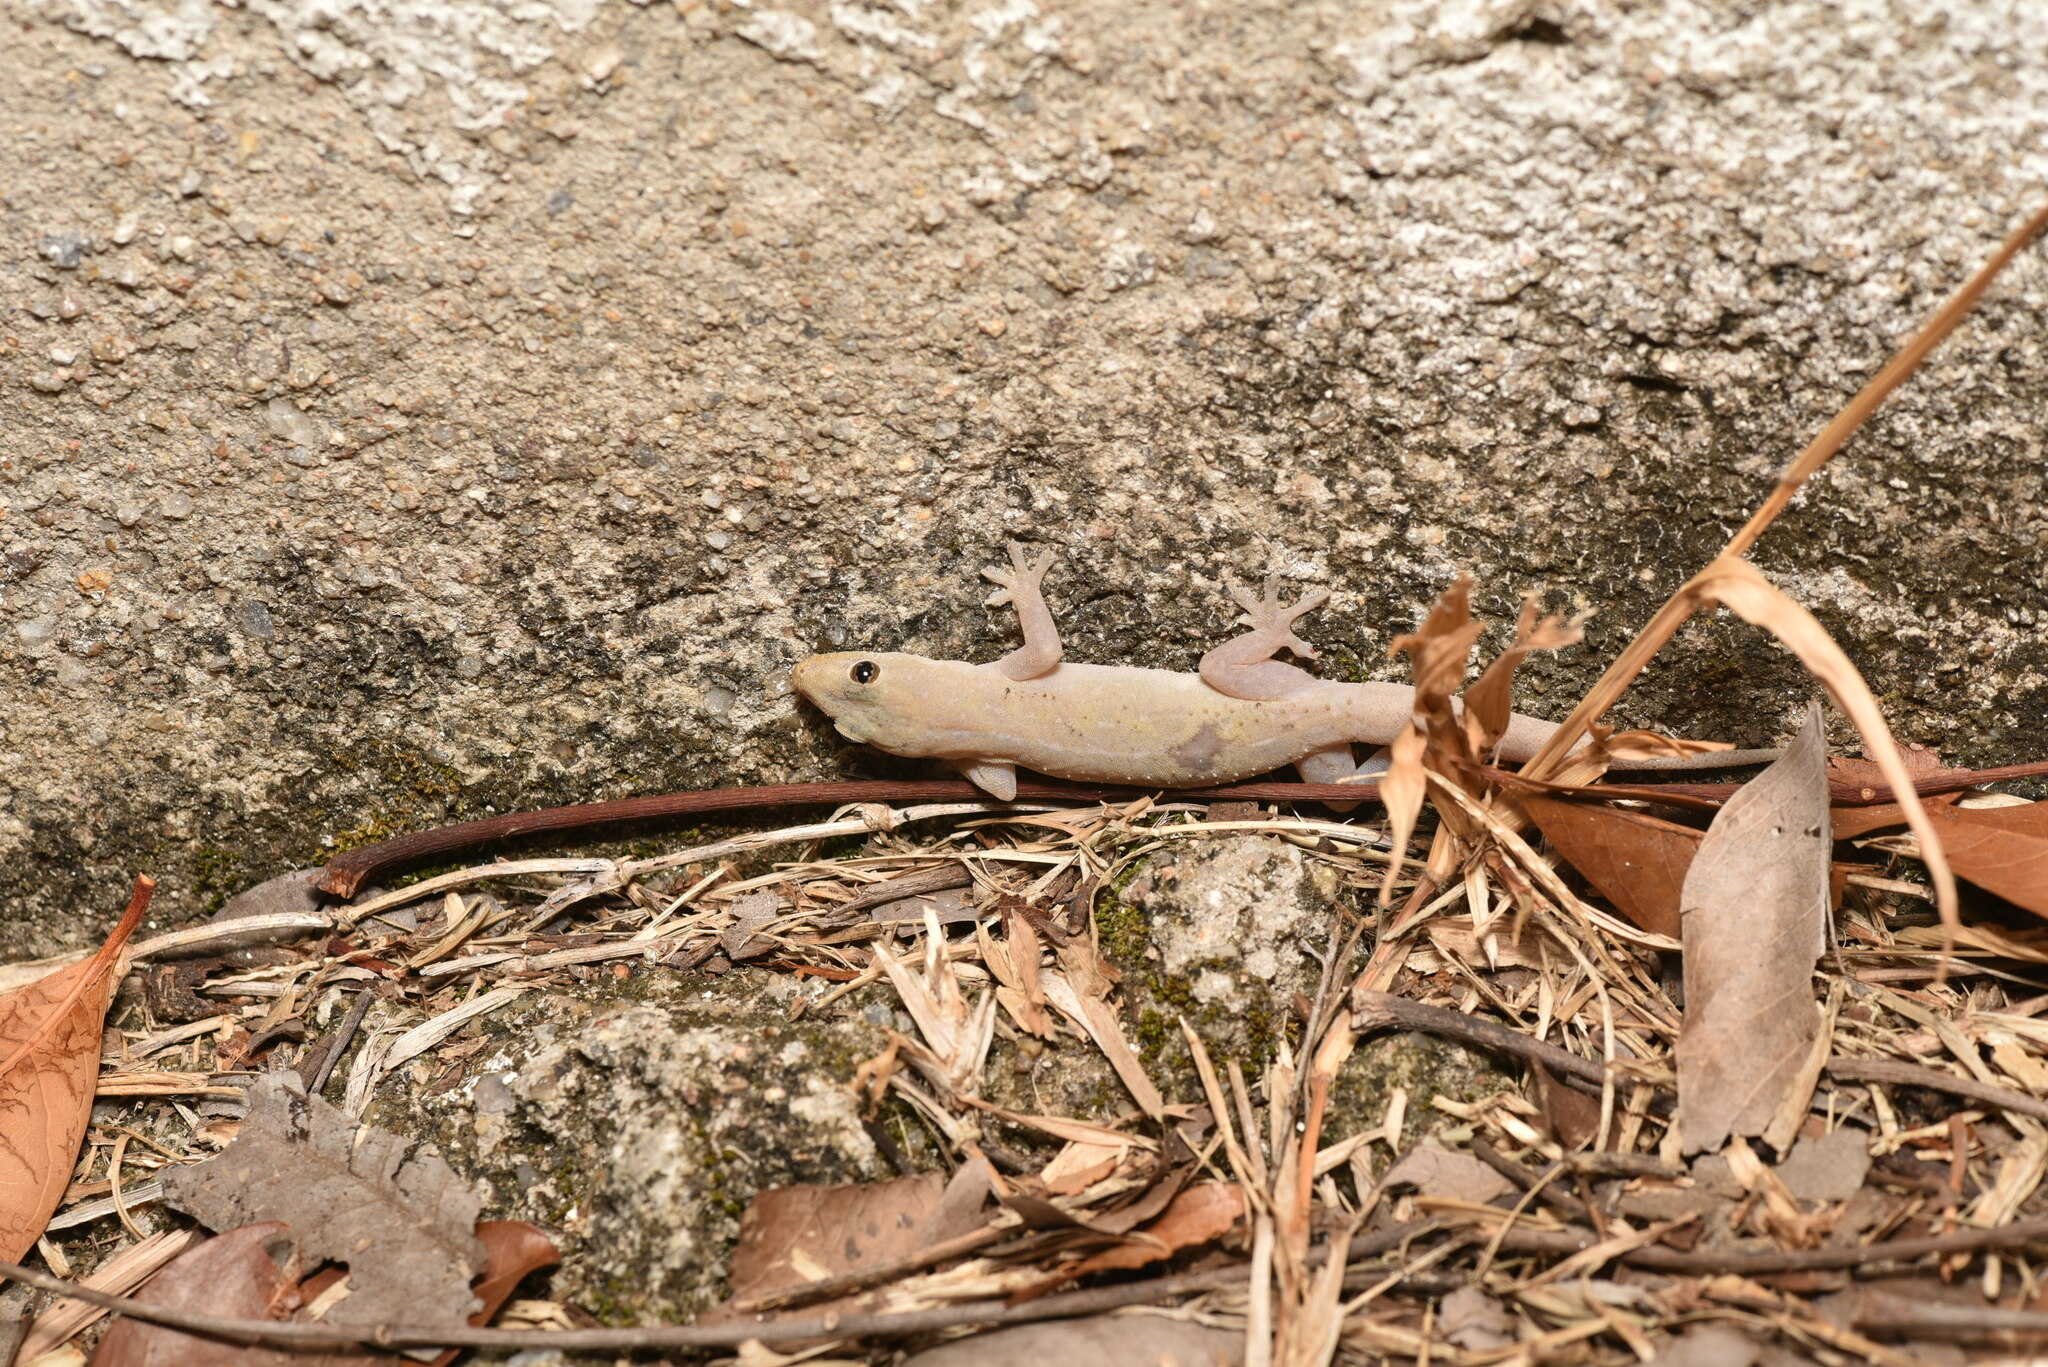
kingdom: Animalia
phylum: Chordata
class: Squamata
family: Gekkonidae
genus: Hemidactylus
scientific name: Hemidactylus frenatus
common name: Common house gecko
